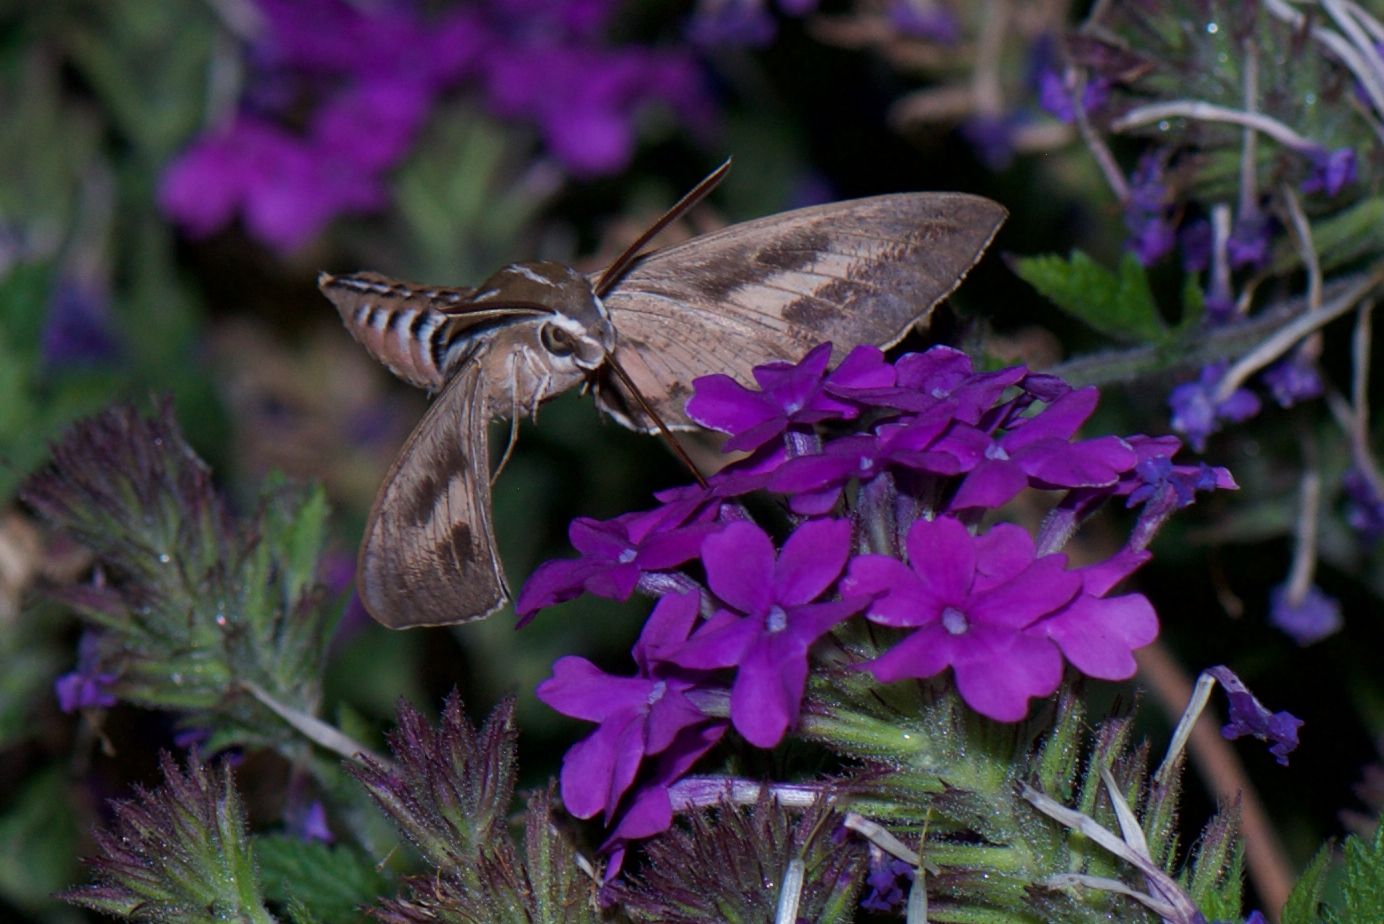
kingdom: Animalia
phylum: Arthropoda
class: Insecta
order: Lepidoptera
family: Sphingidae
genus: Hyles
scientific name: Hyles lineata
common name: White-lined sphinx
